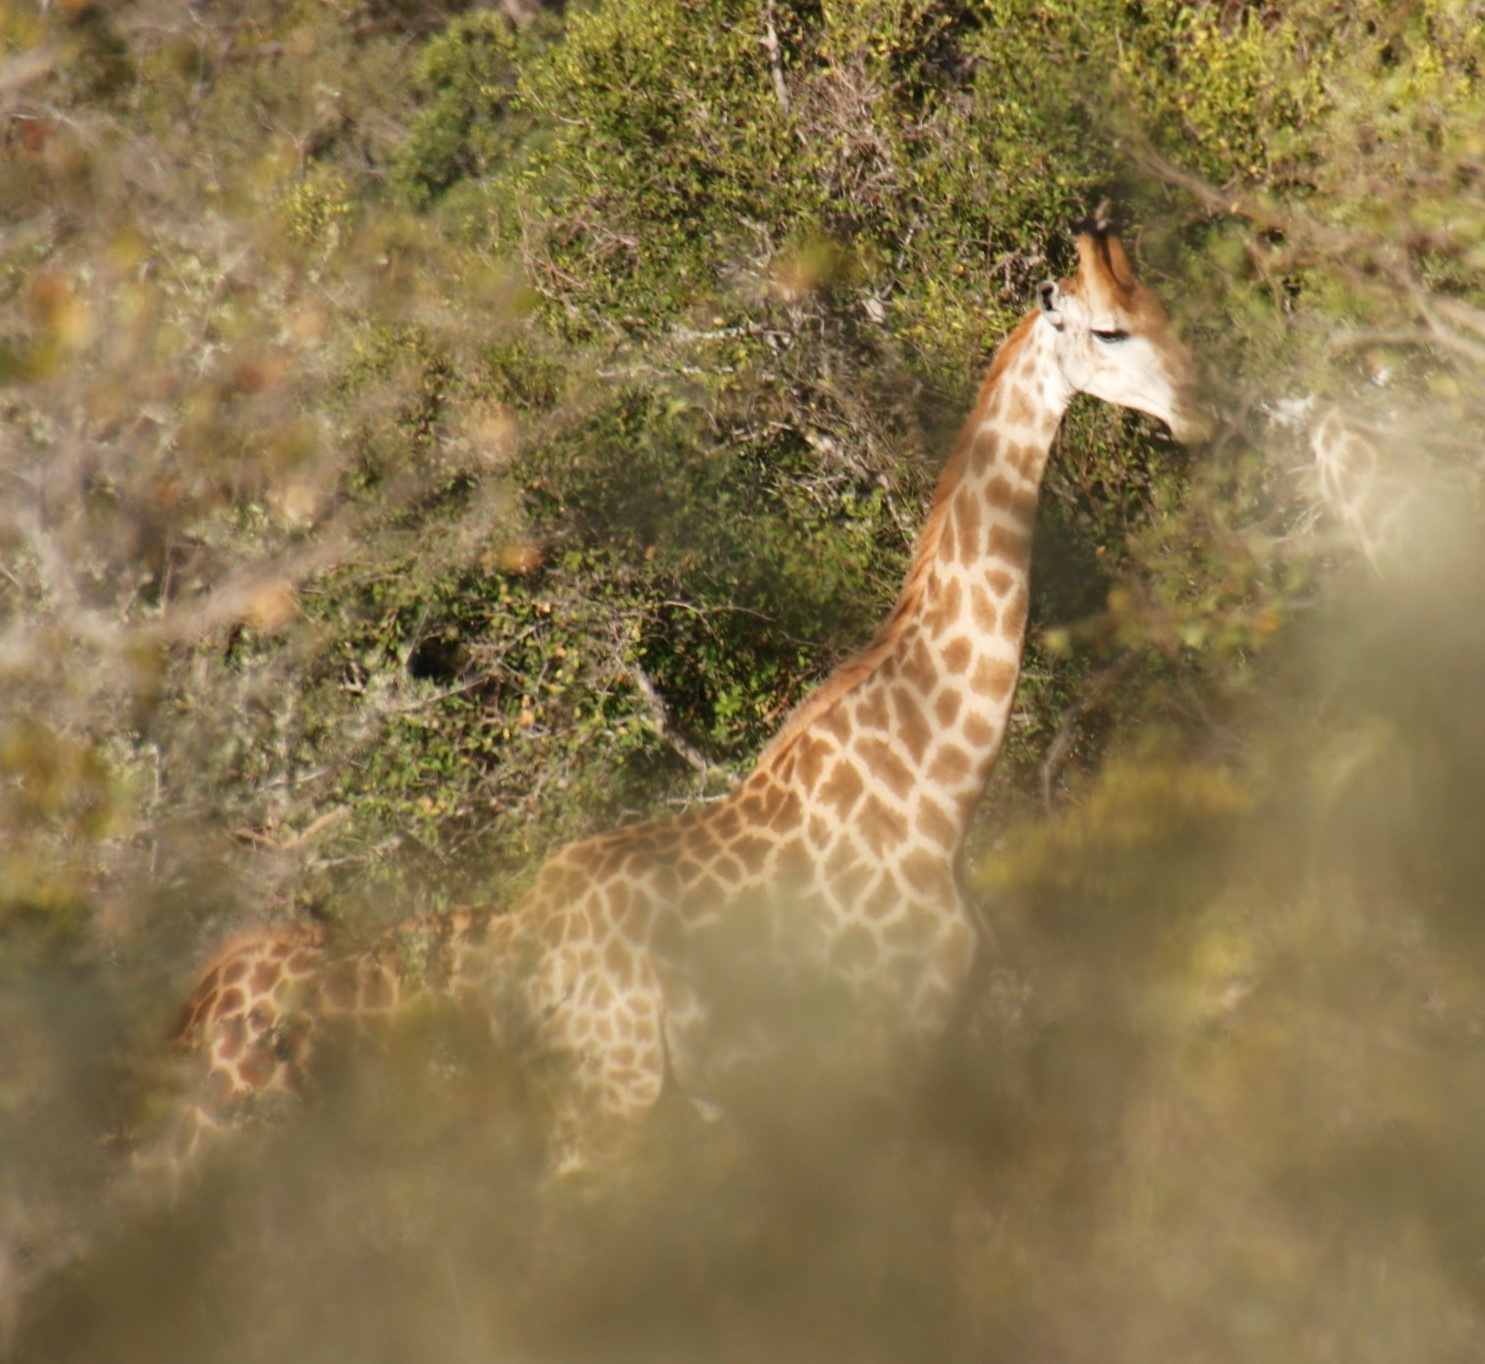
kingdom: Animalia
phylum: Chordata
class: Mammalia
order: Artiodactyla
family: Giraffidae
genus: Giraffa
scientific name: Giraffa giraffa
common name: Southern giraffe
